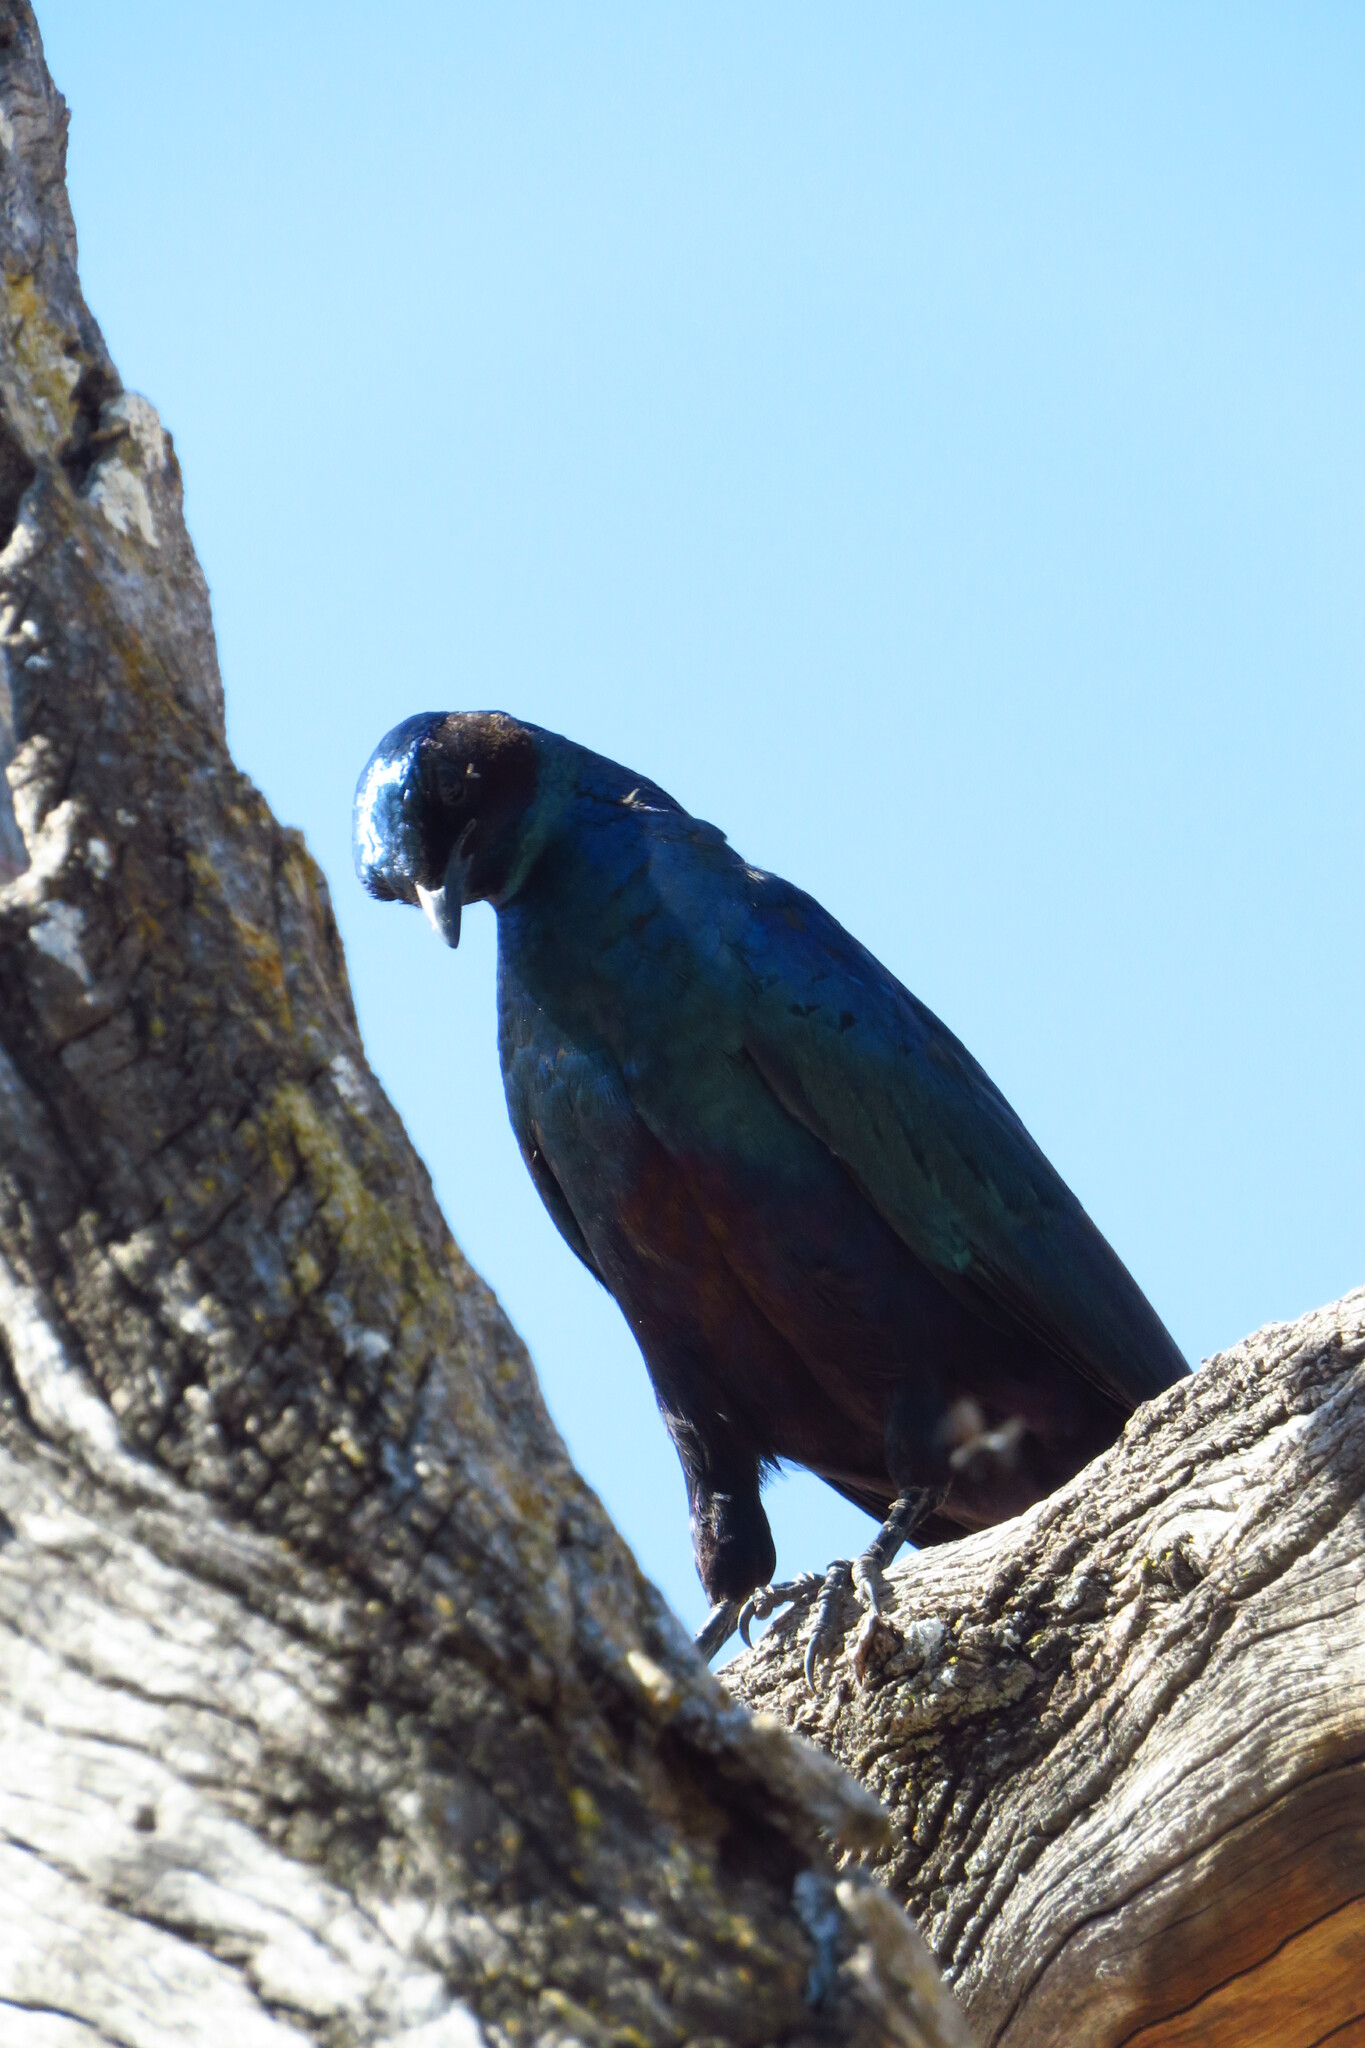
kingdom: Animalia
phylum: Chordata
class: Aves
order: Passeriformes
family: Sturnidae
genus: Lamprotornis
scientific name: Lamprotornis australis
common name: Burchell's starling
